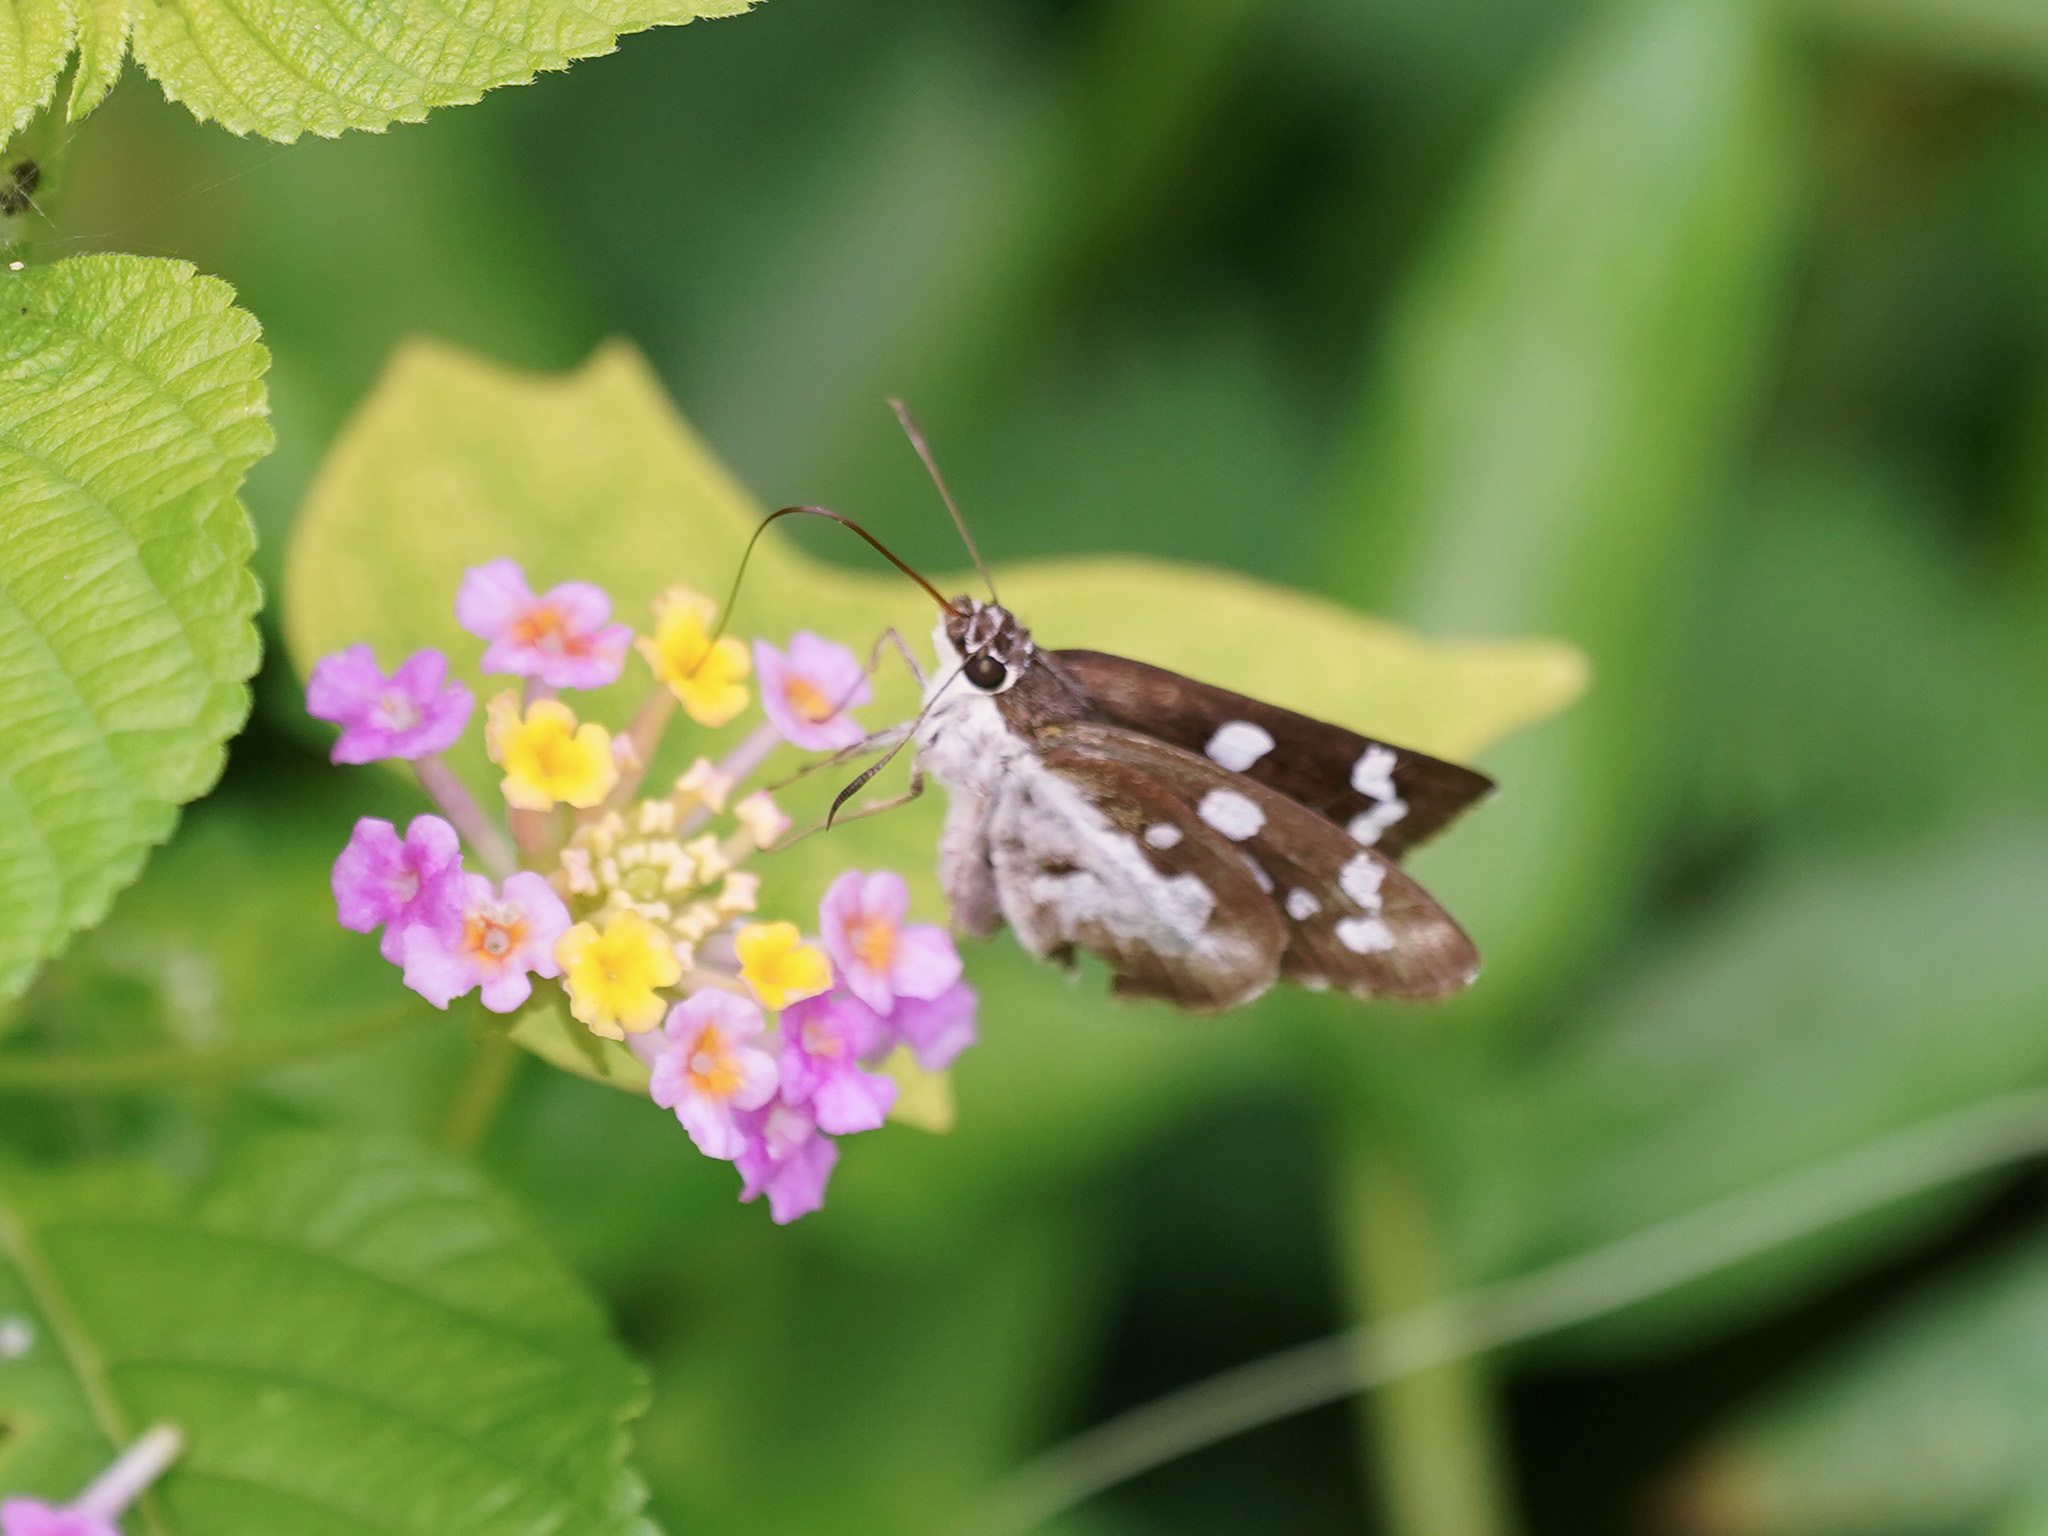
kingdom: Animalia
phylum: Arthropoda
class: Insecta
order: Lepidoptera
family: Hesperiidae
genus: Udaspes
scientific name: Udaspes folus
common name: Grass demon
